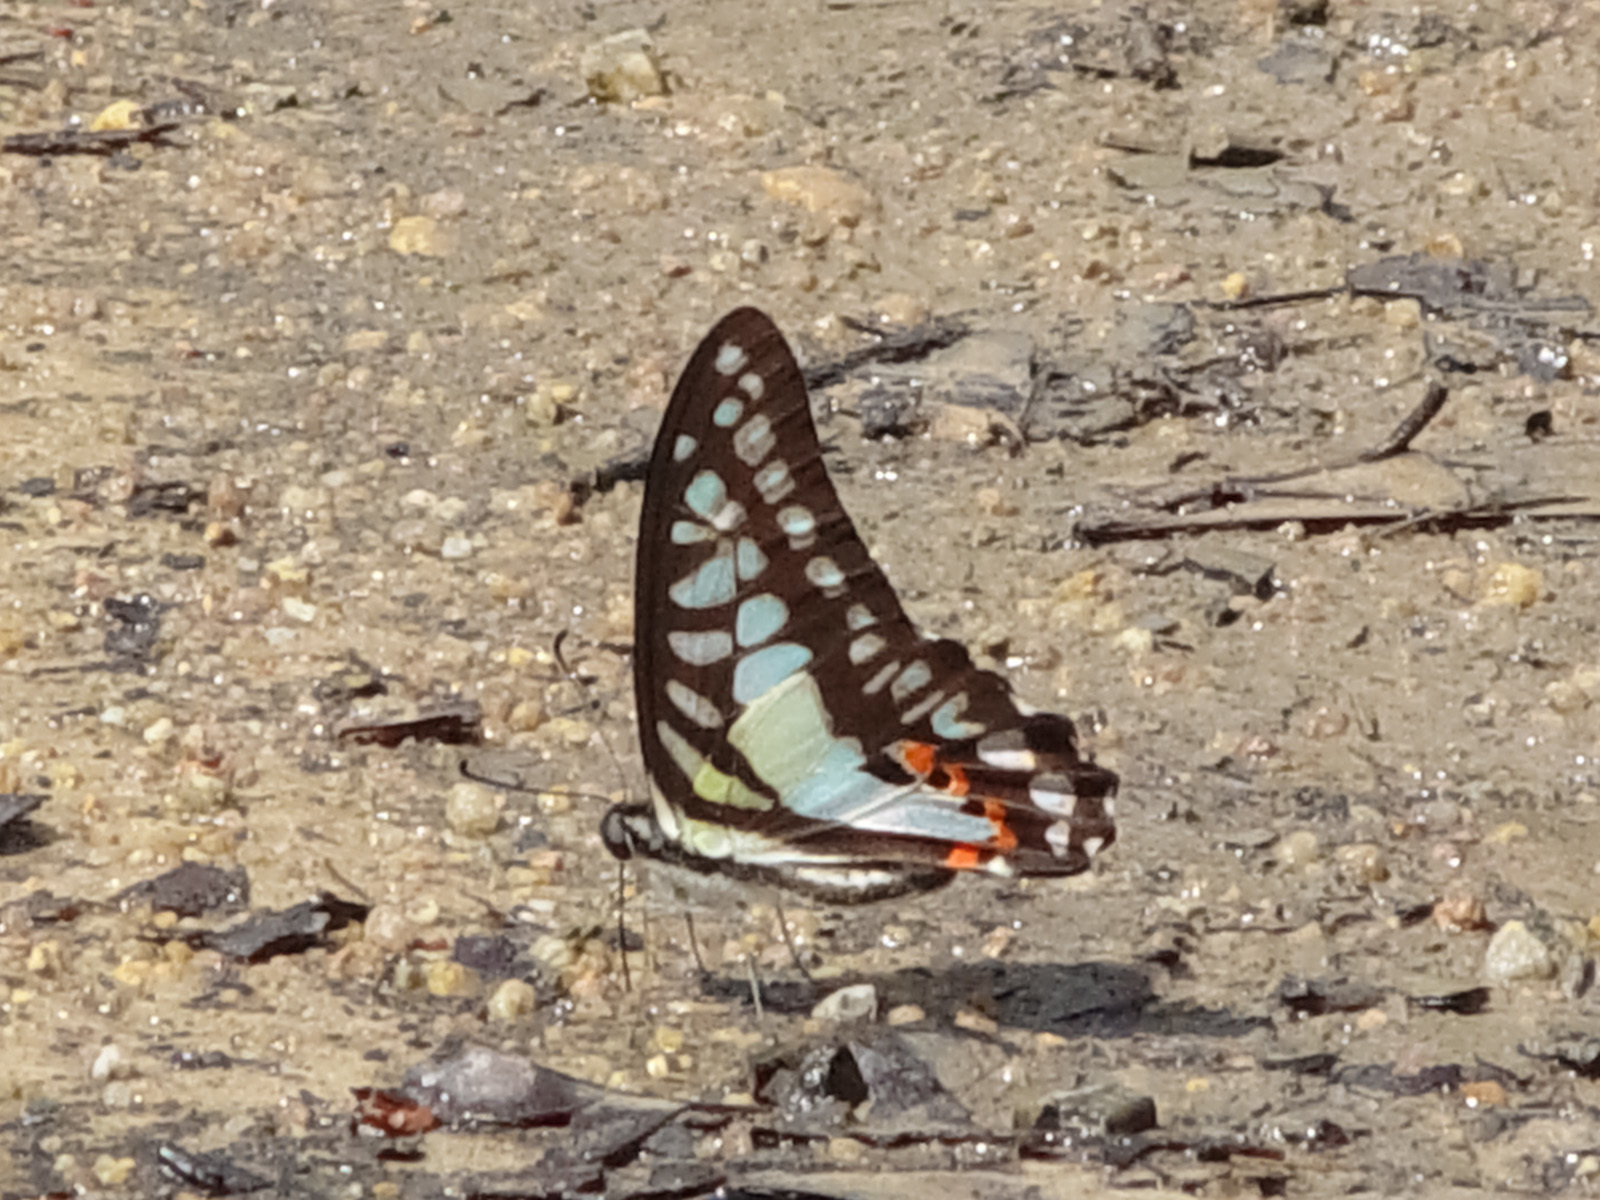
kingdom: Animalia
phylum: Arthropoda
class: Insecta
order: Lepidoptera
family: Papilionidae
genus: Graphium
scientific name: Graphium evemon
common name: Lesser jay
